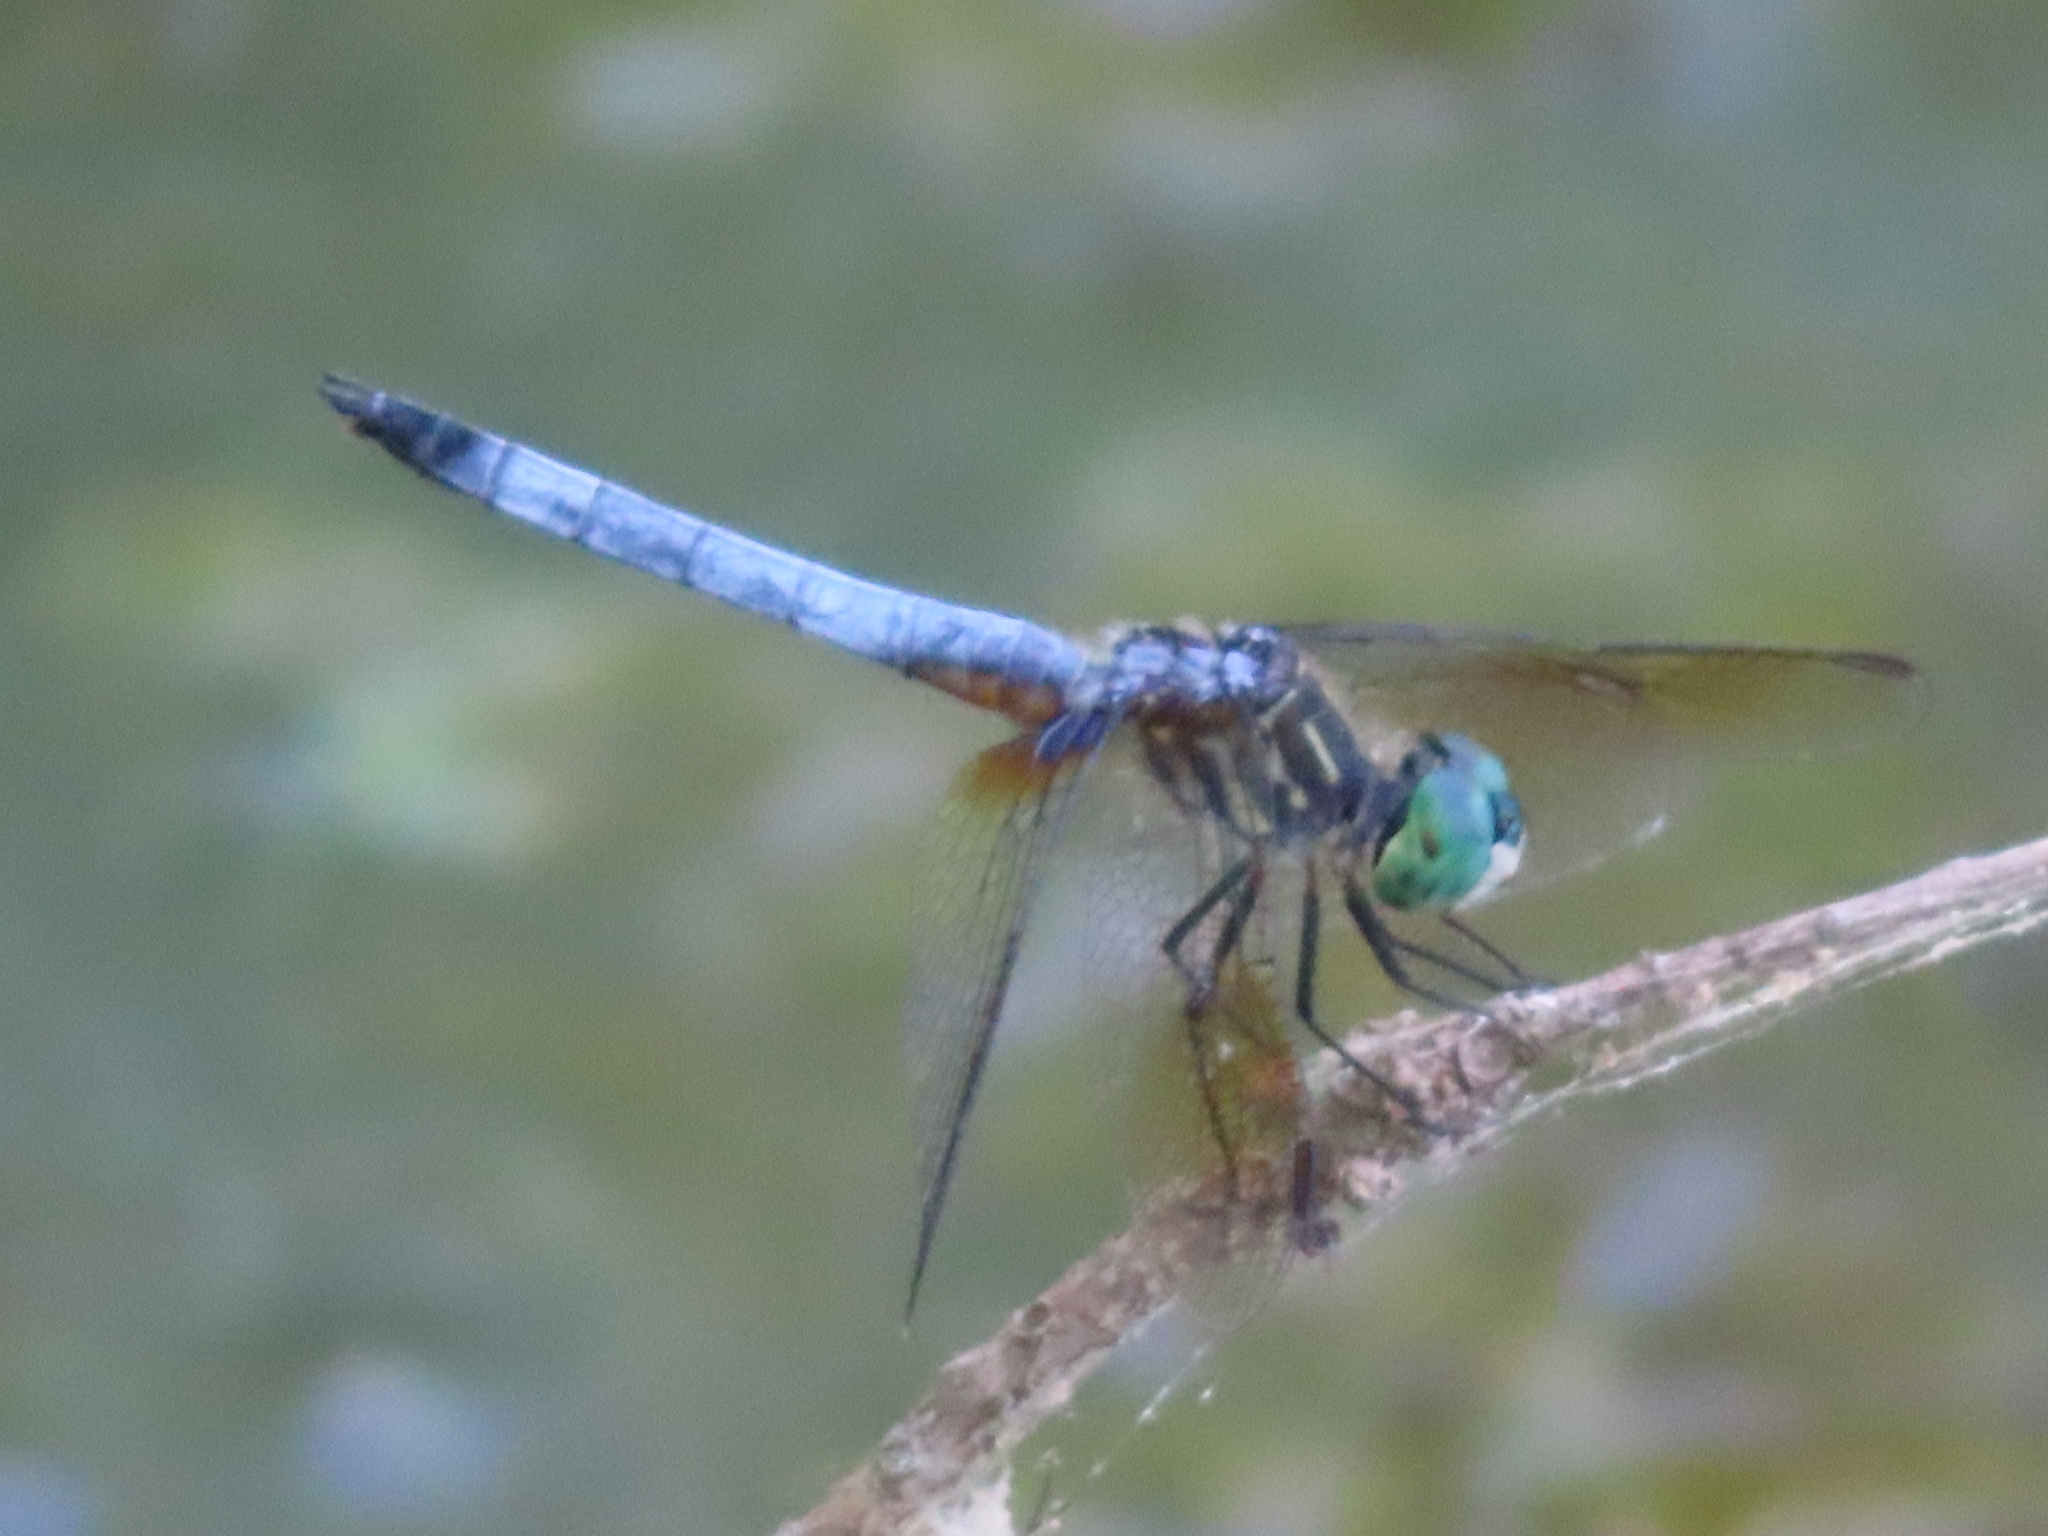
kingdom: Animalia
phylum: Arthropoda
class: Insecta
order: Odonata
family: Libellulidae
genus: Pachydiplax
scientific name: Pachydiplax longipennis
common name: Blue dasher
